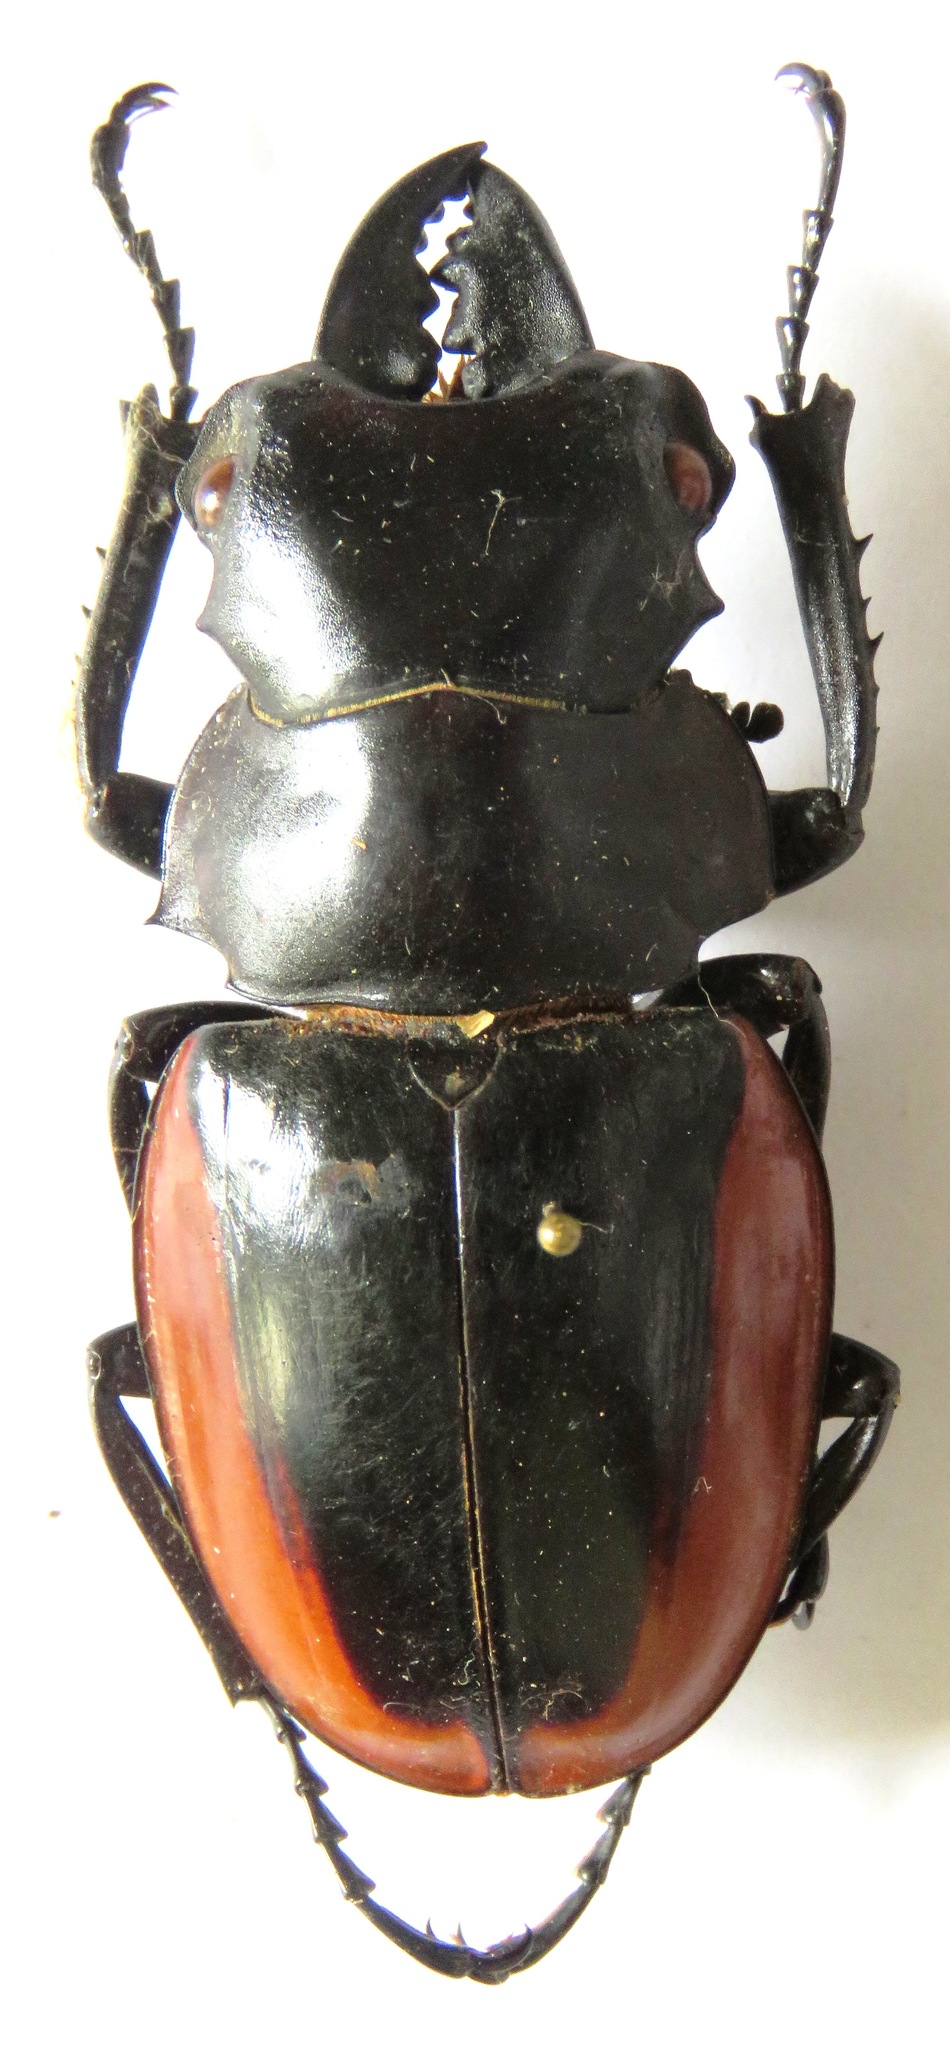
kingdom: Animalia
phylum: Arthropoda
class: Insecta
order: Coleoptera
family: Lucanidae
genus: Odontolabis
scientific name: Odontolabis cuvera
